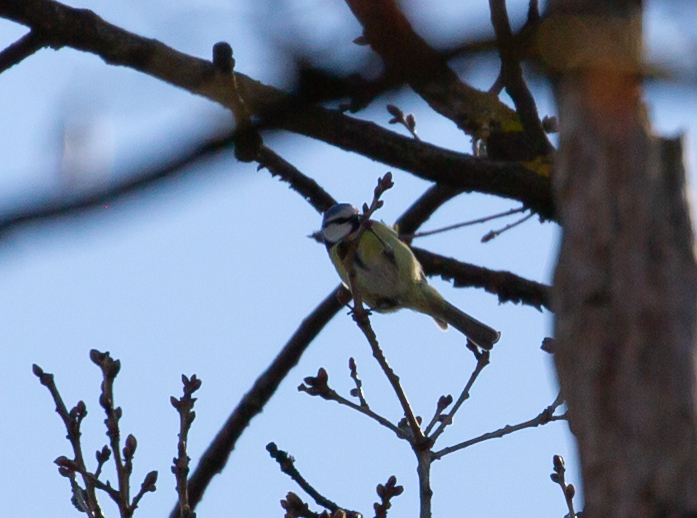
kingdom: Animalia
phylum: Chordata
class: Aves
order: Passeriformes
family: Paridae
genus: Cyanistes
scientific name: Cyanistes caeruleus
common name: Eurasian blue tit
